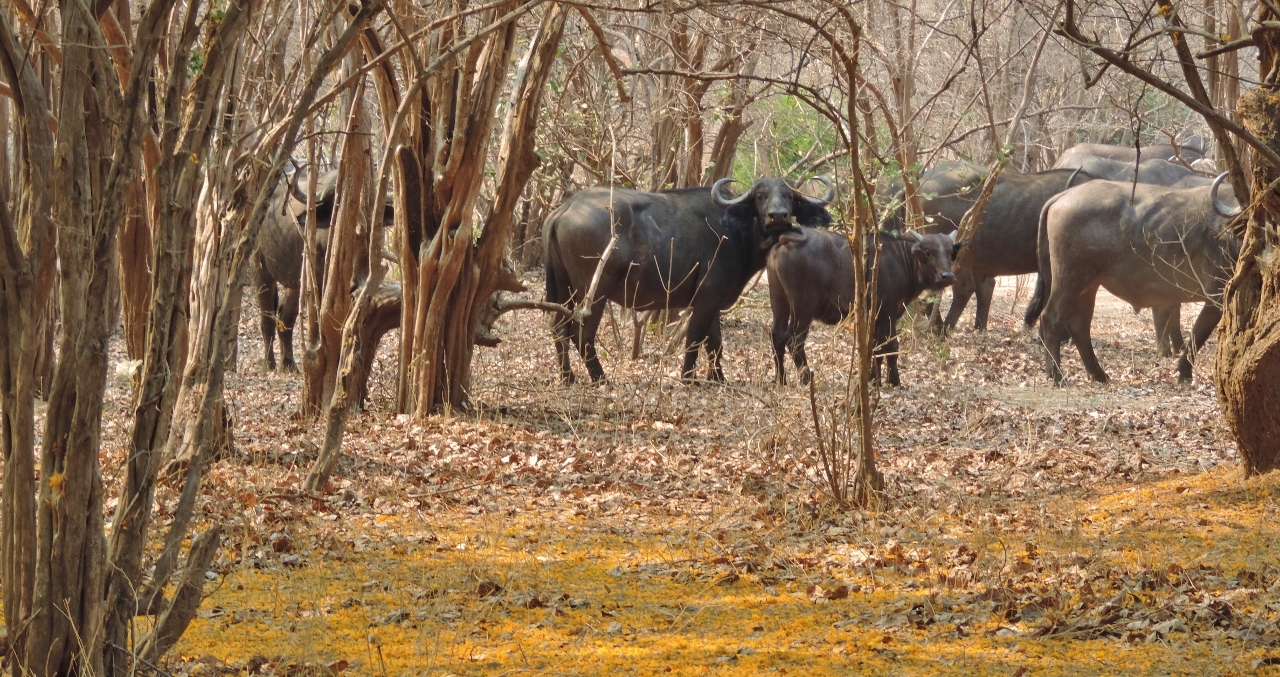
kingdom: Animalia
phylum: Chordata
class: Mammalia
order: Artiodactyla
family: Bovidae
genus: Syncerus
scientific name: Syncerus caffer
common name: African buffalo
